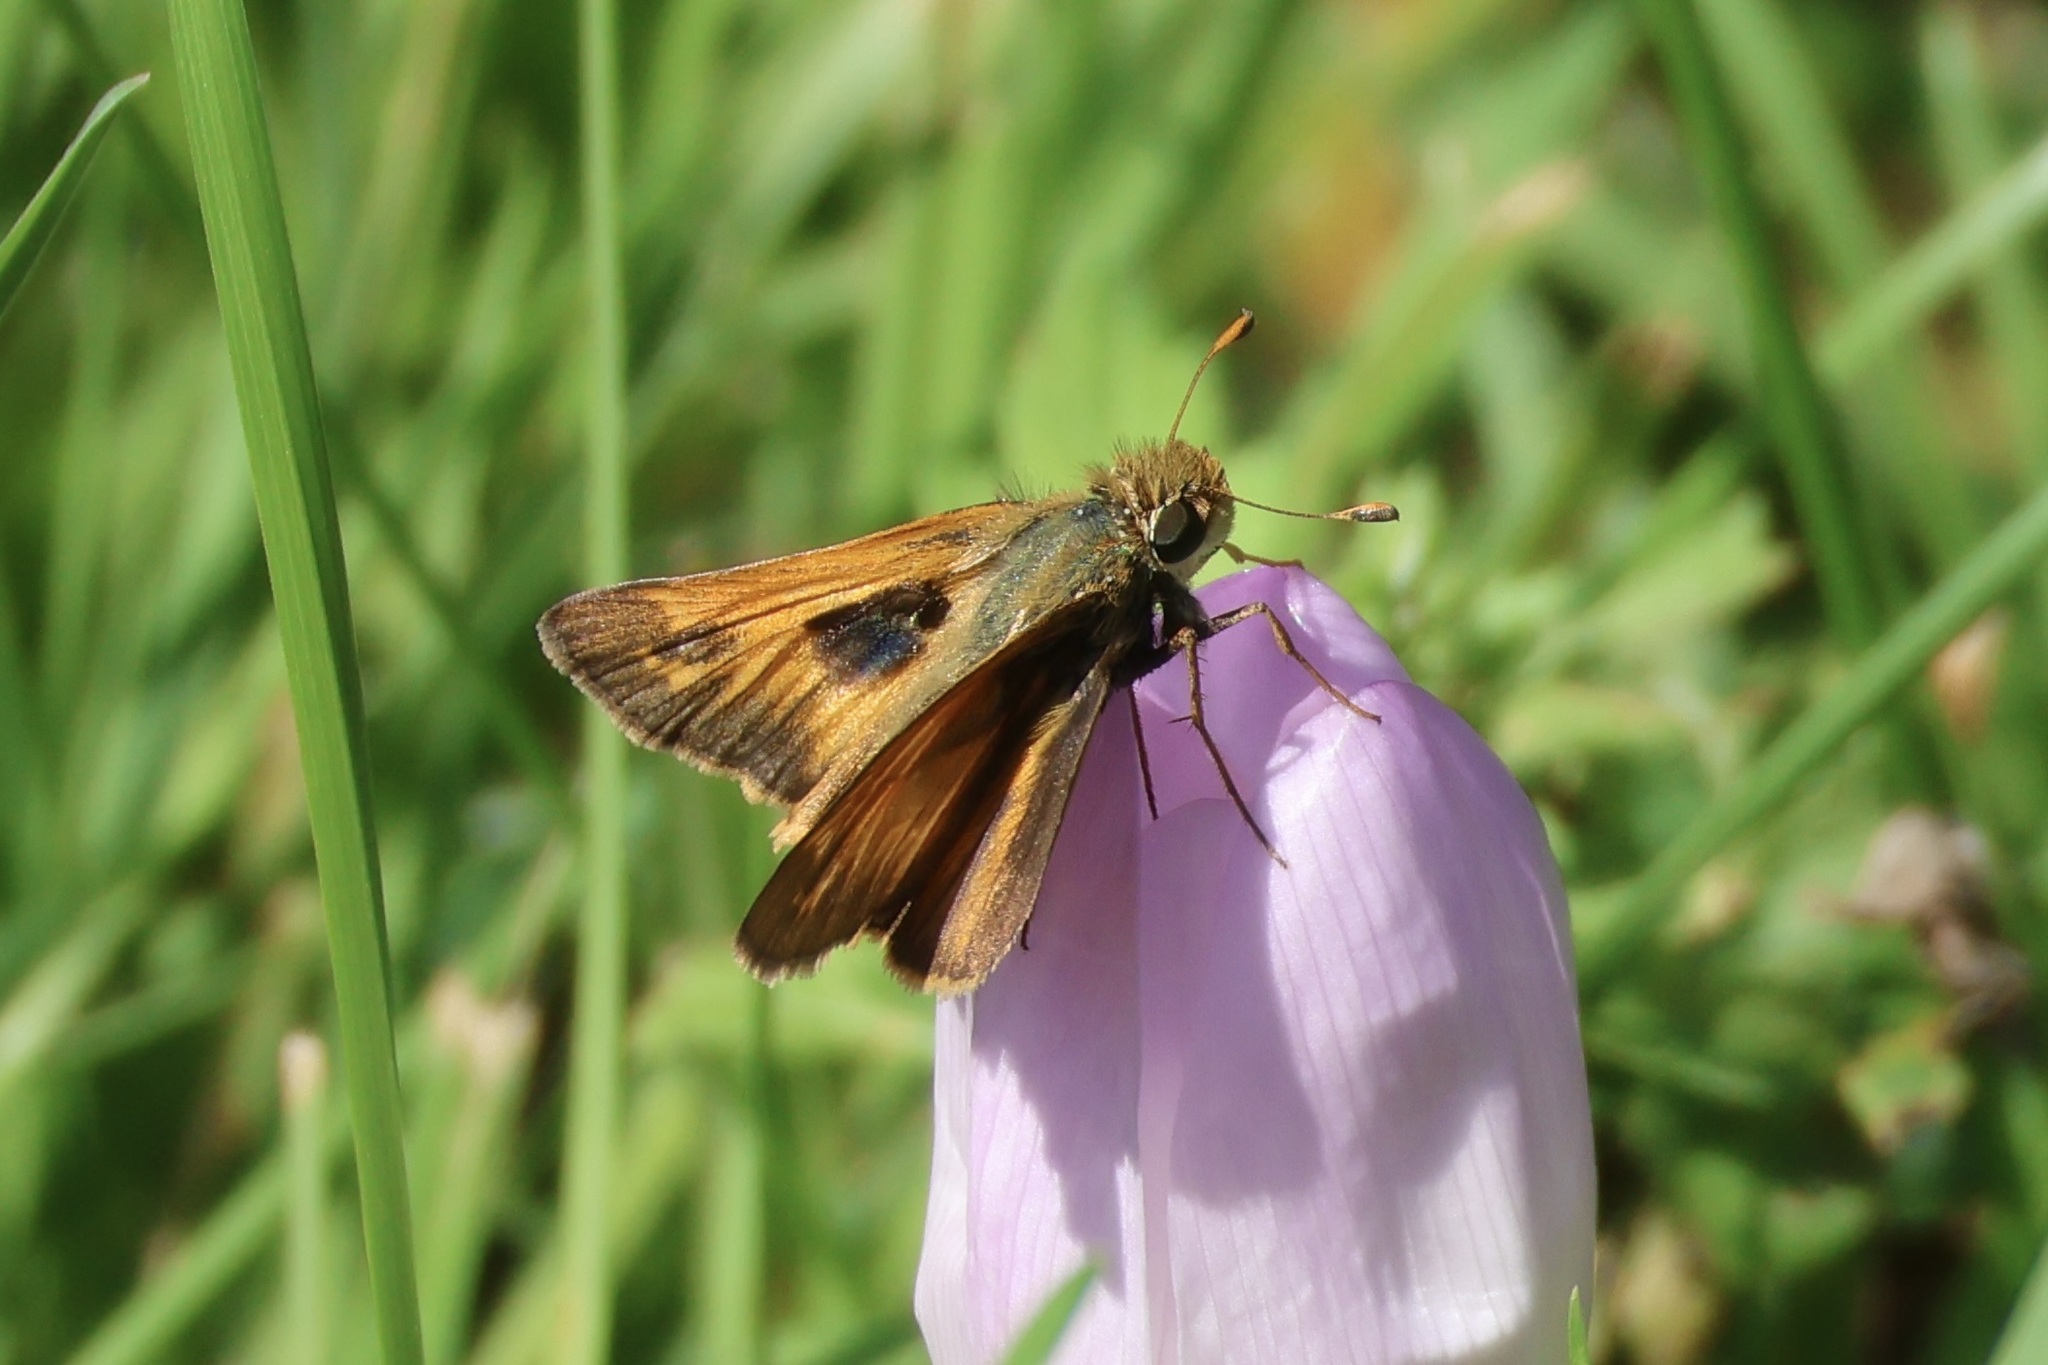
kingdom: Animalia
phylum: Arthropoda
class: Insecta
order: Lepidoptera
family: Hesperiidae
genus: Atalopedes
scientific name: Atalopedes
